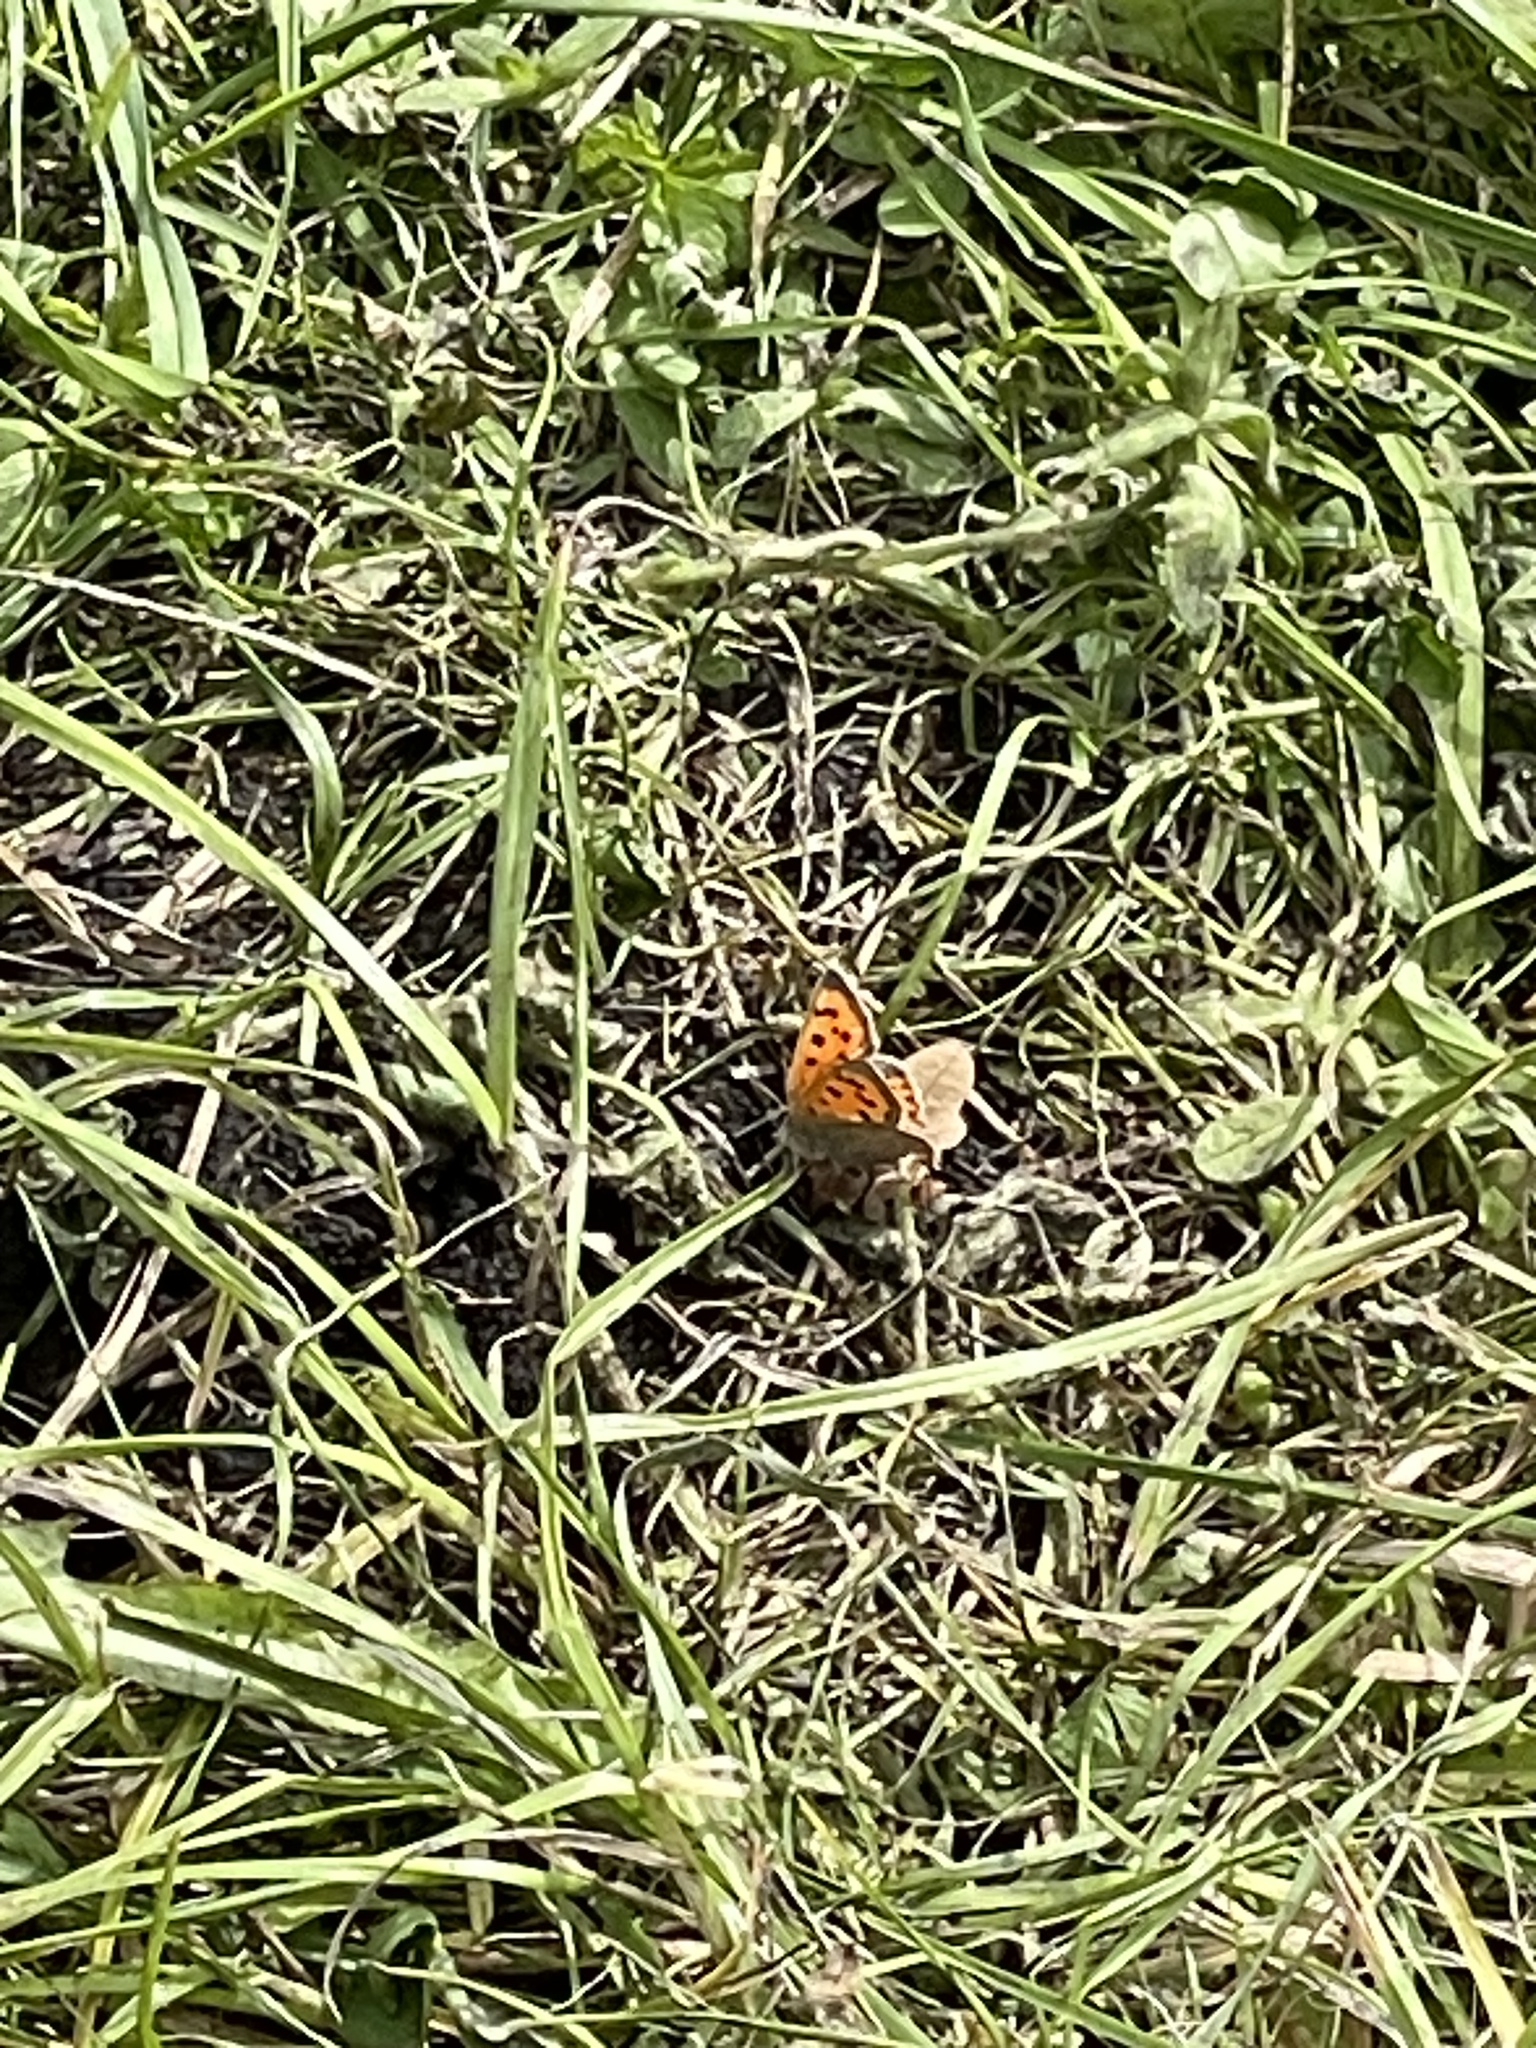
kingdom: Animalia
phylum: Arthropoda
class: Insecta
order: Lepidoptera
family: Lycaenidae
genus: Lycaena
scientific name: Lycaena phlaeas
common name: Small copper
